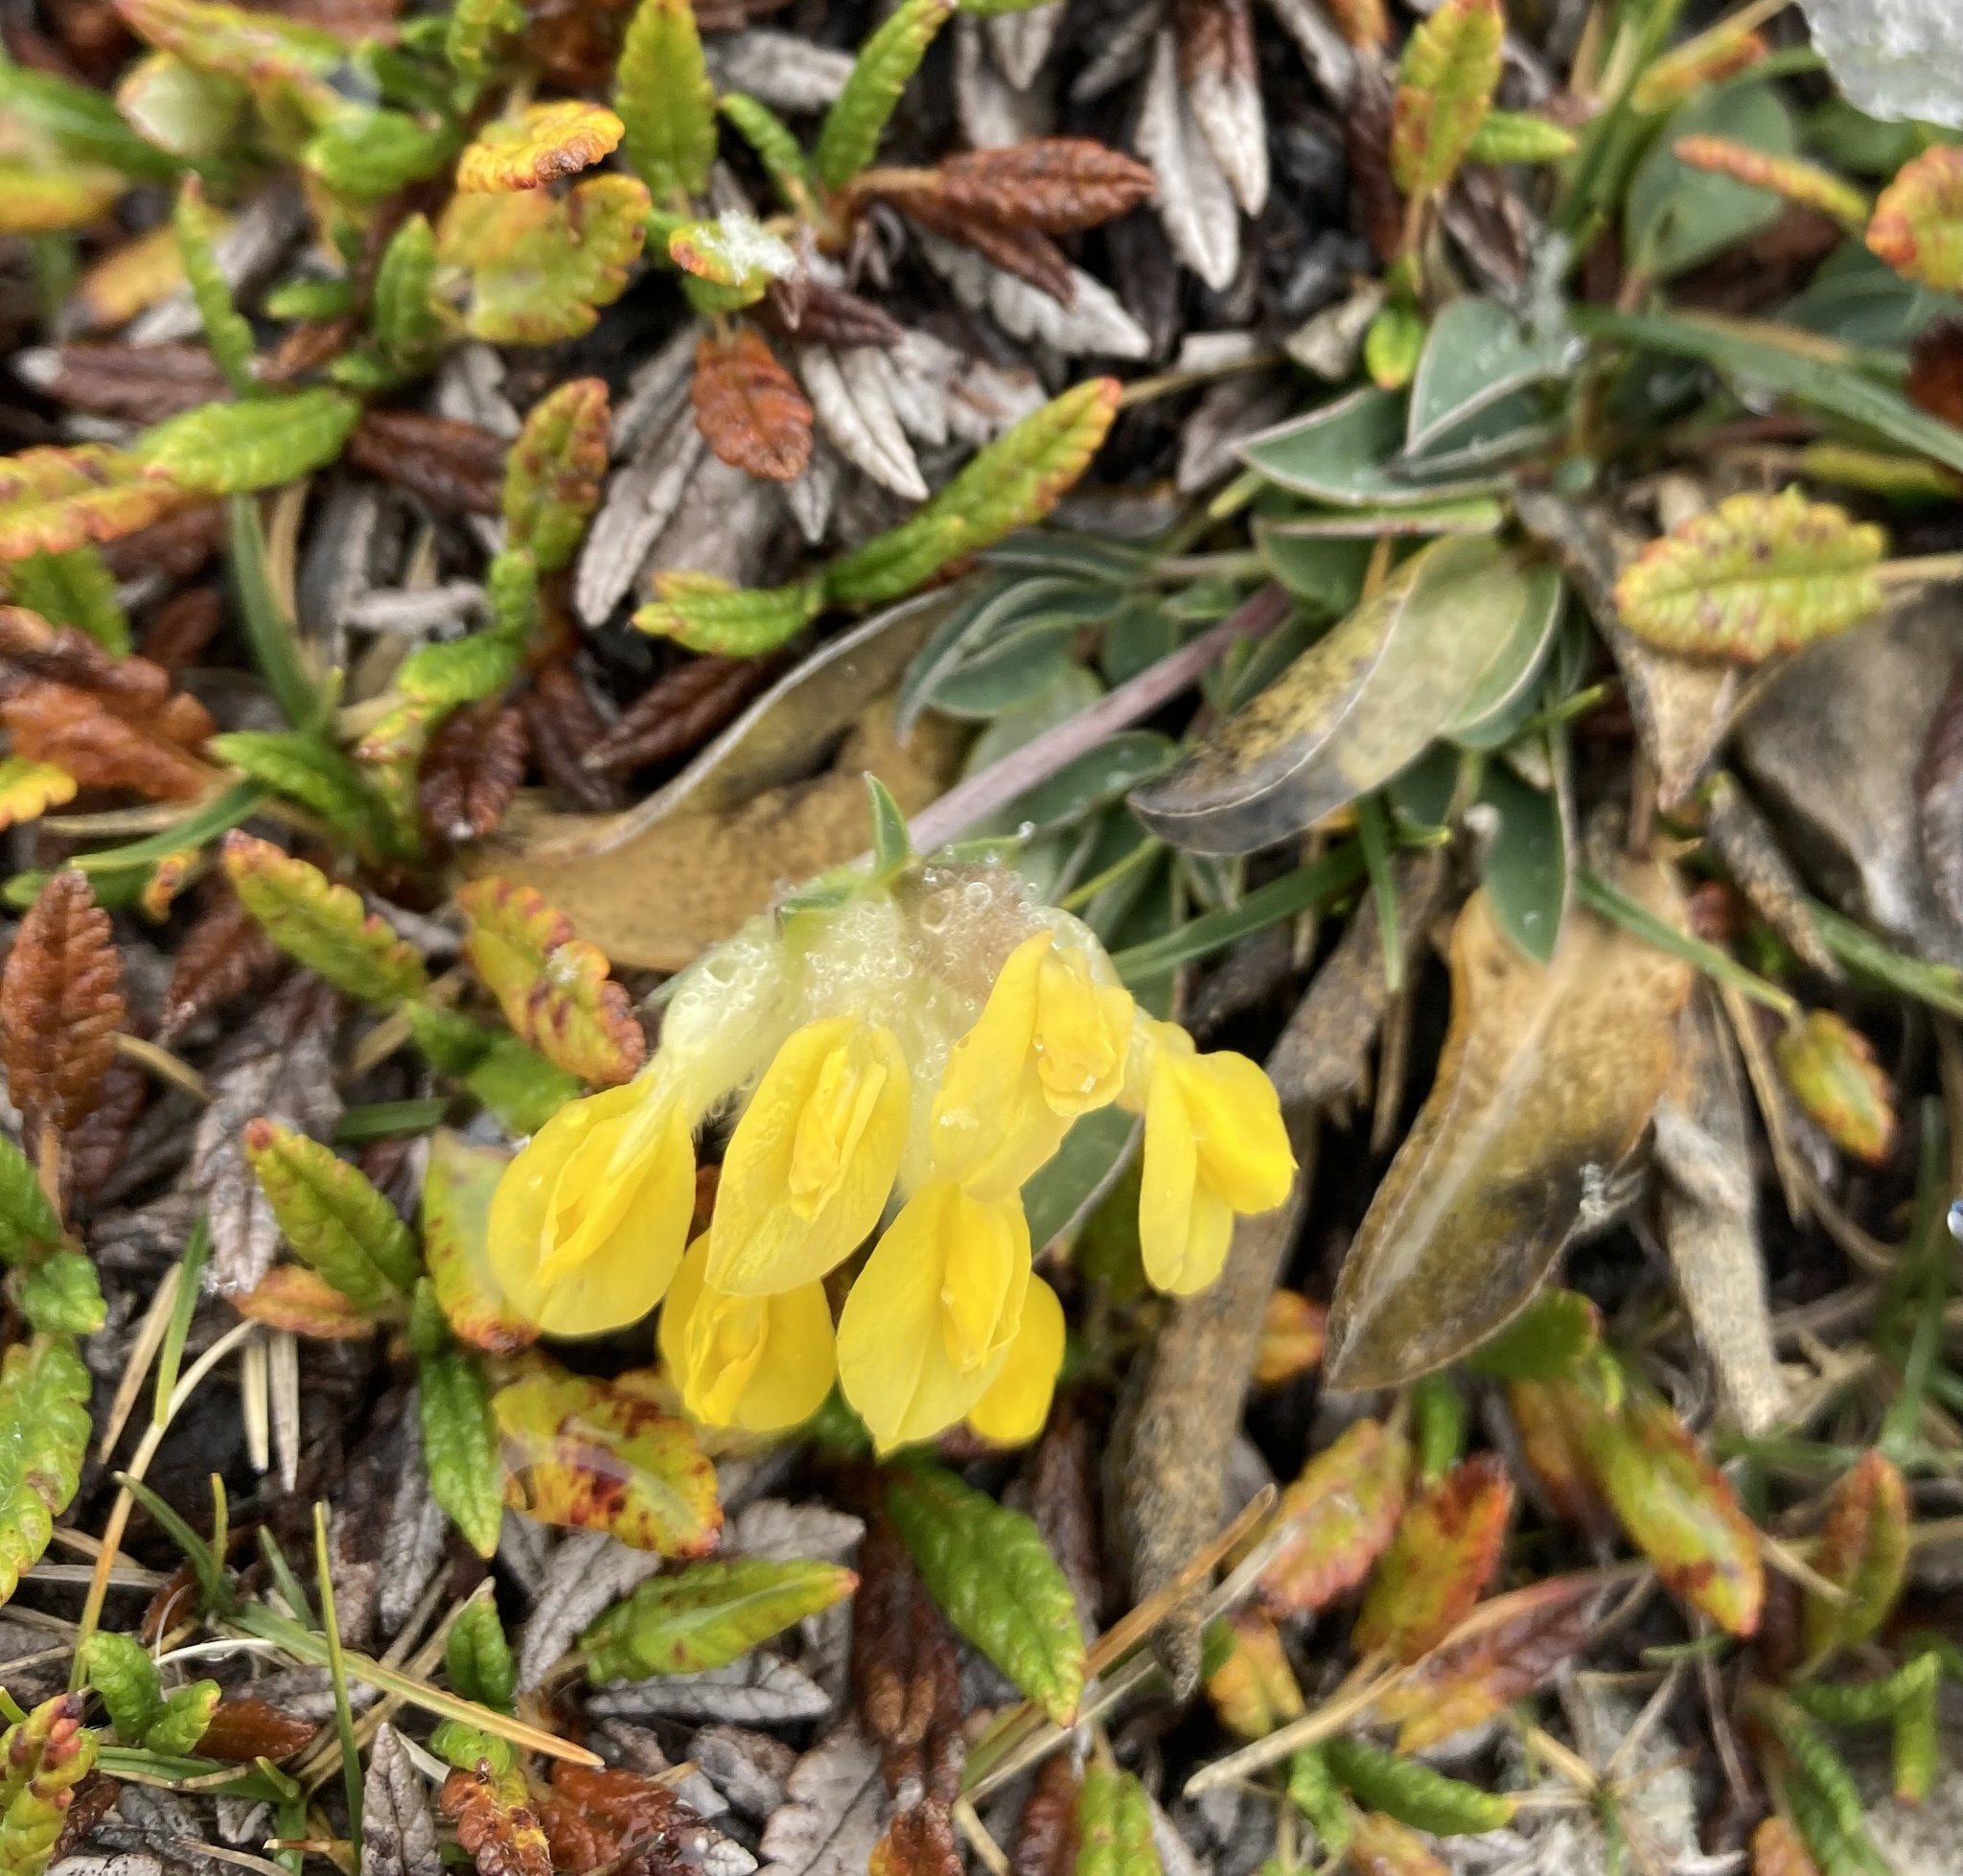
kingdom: Plantae
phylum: Tracheophyta
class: Magnoliopsida
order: Fabales
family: Fabaceae
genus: Anthyllis
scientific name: Anthyllis vulneraria
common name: Kidney vetch
